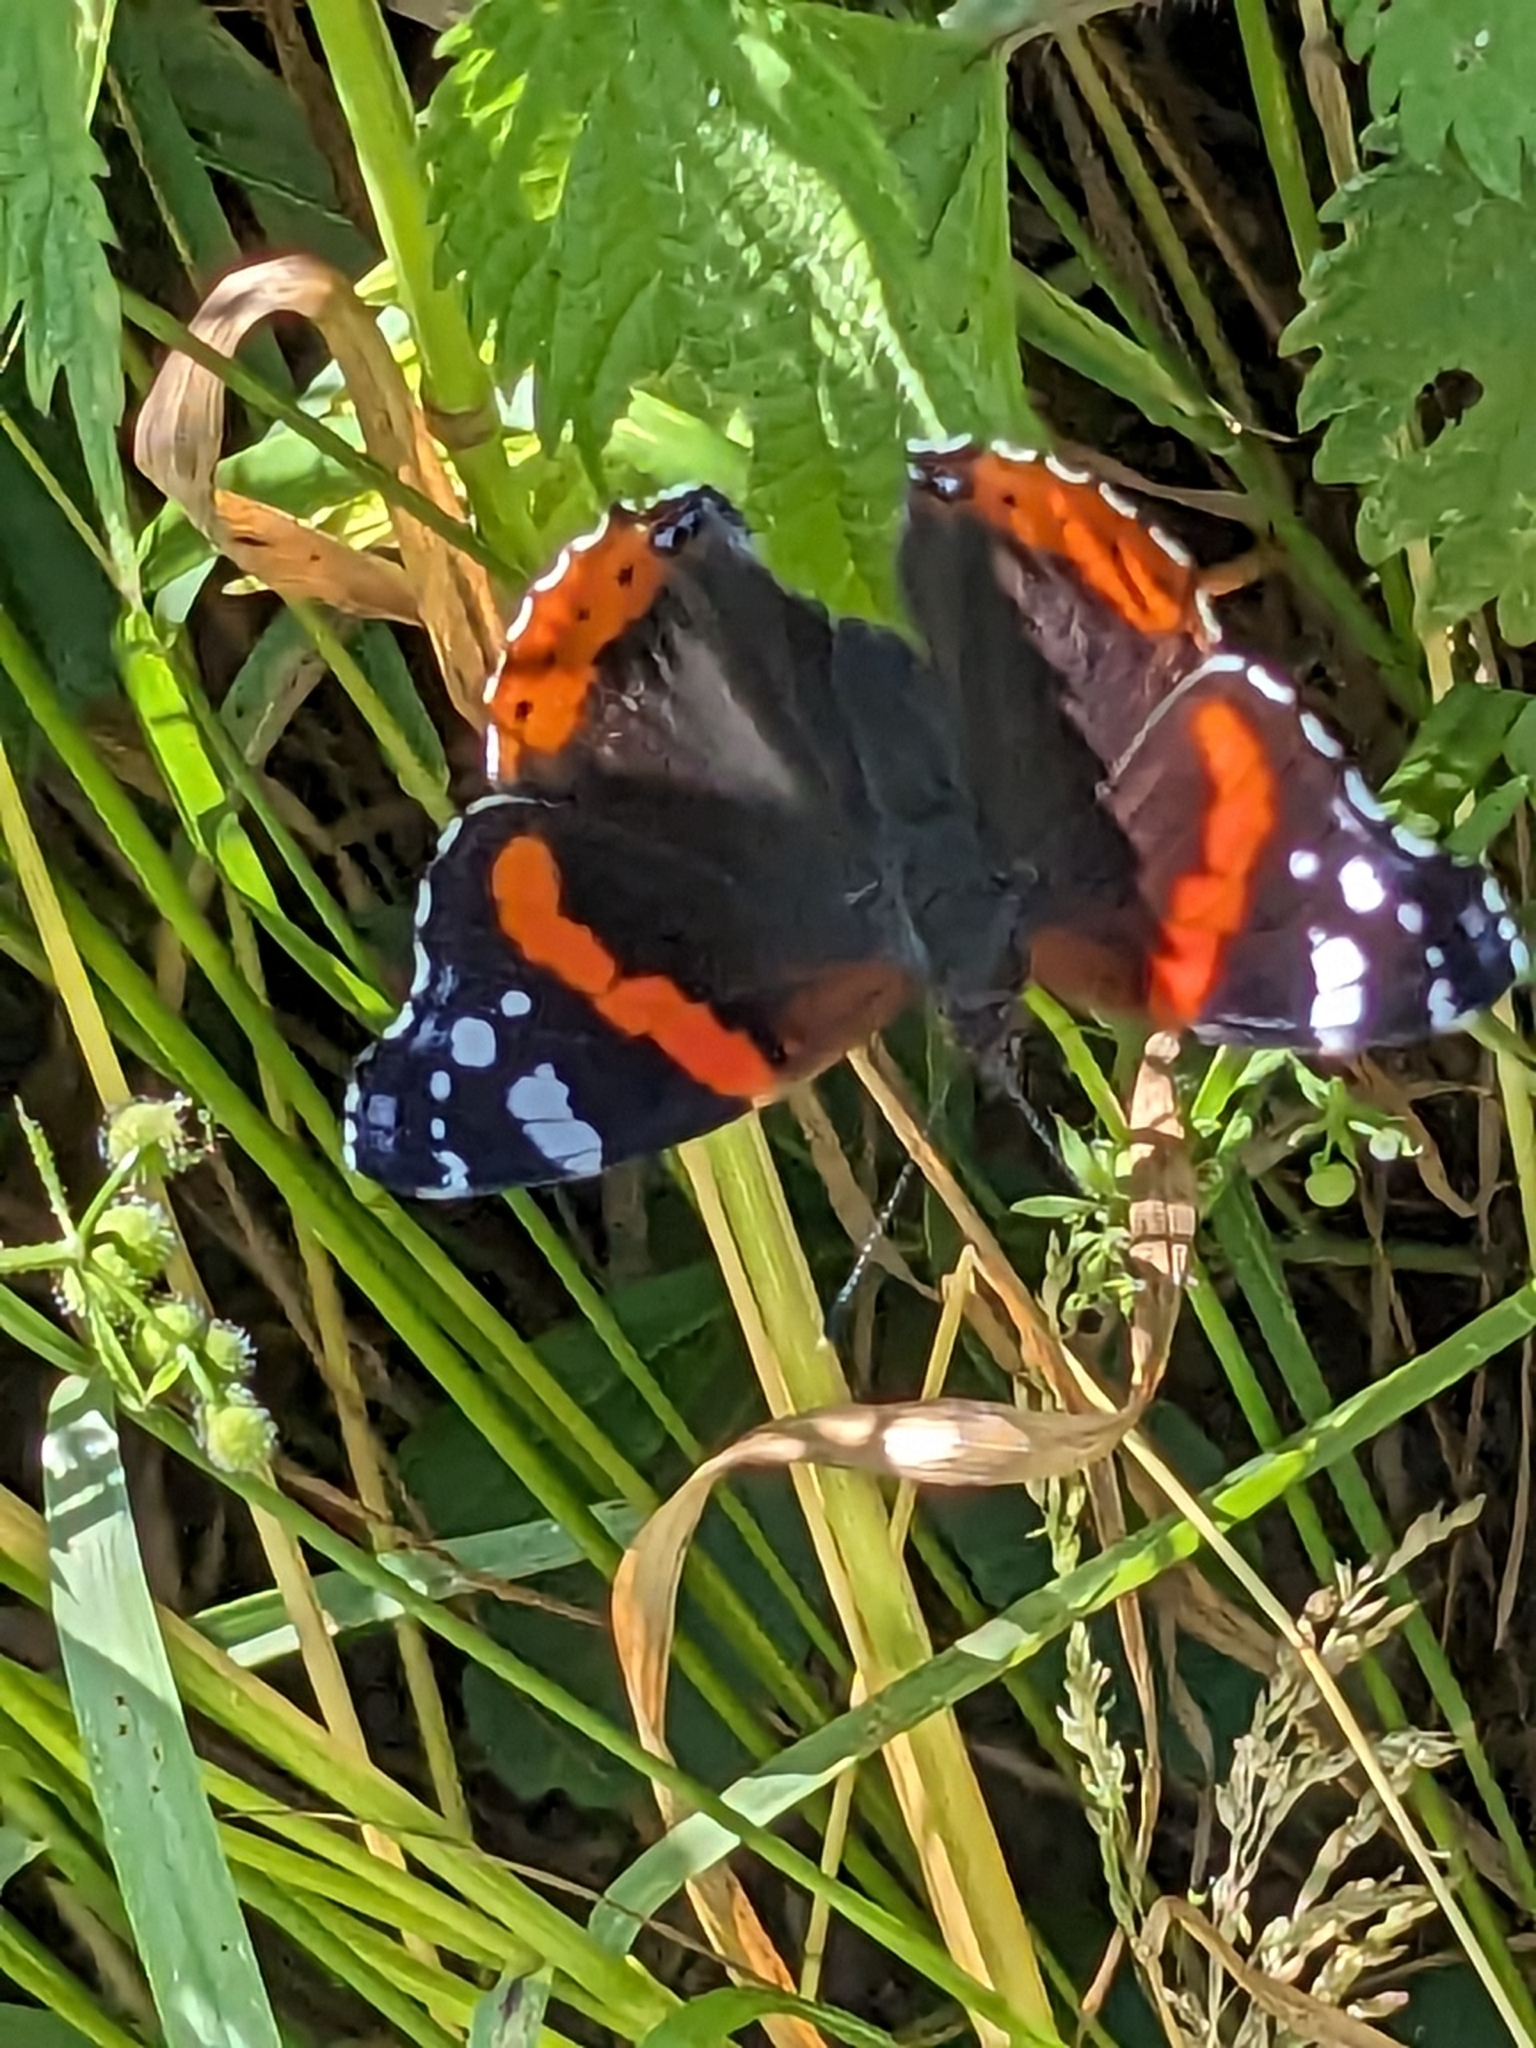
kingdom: Animalia
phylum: Arthropoda
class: Insecta
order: Lepidoptera
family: Nymphalidae
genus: Vanessa
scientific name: Vanessa atalanta
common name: Red admiral
